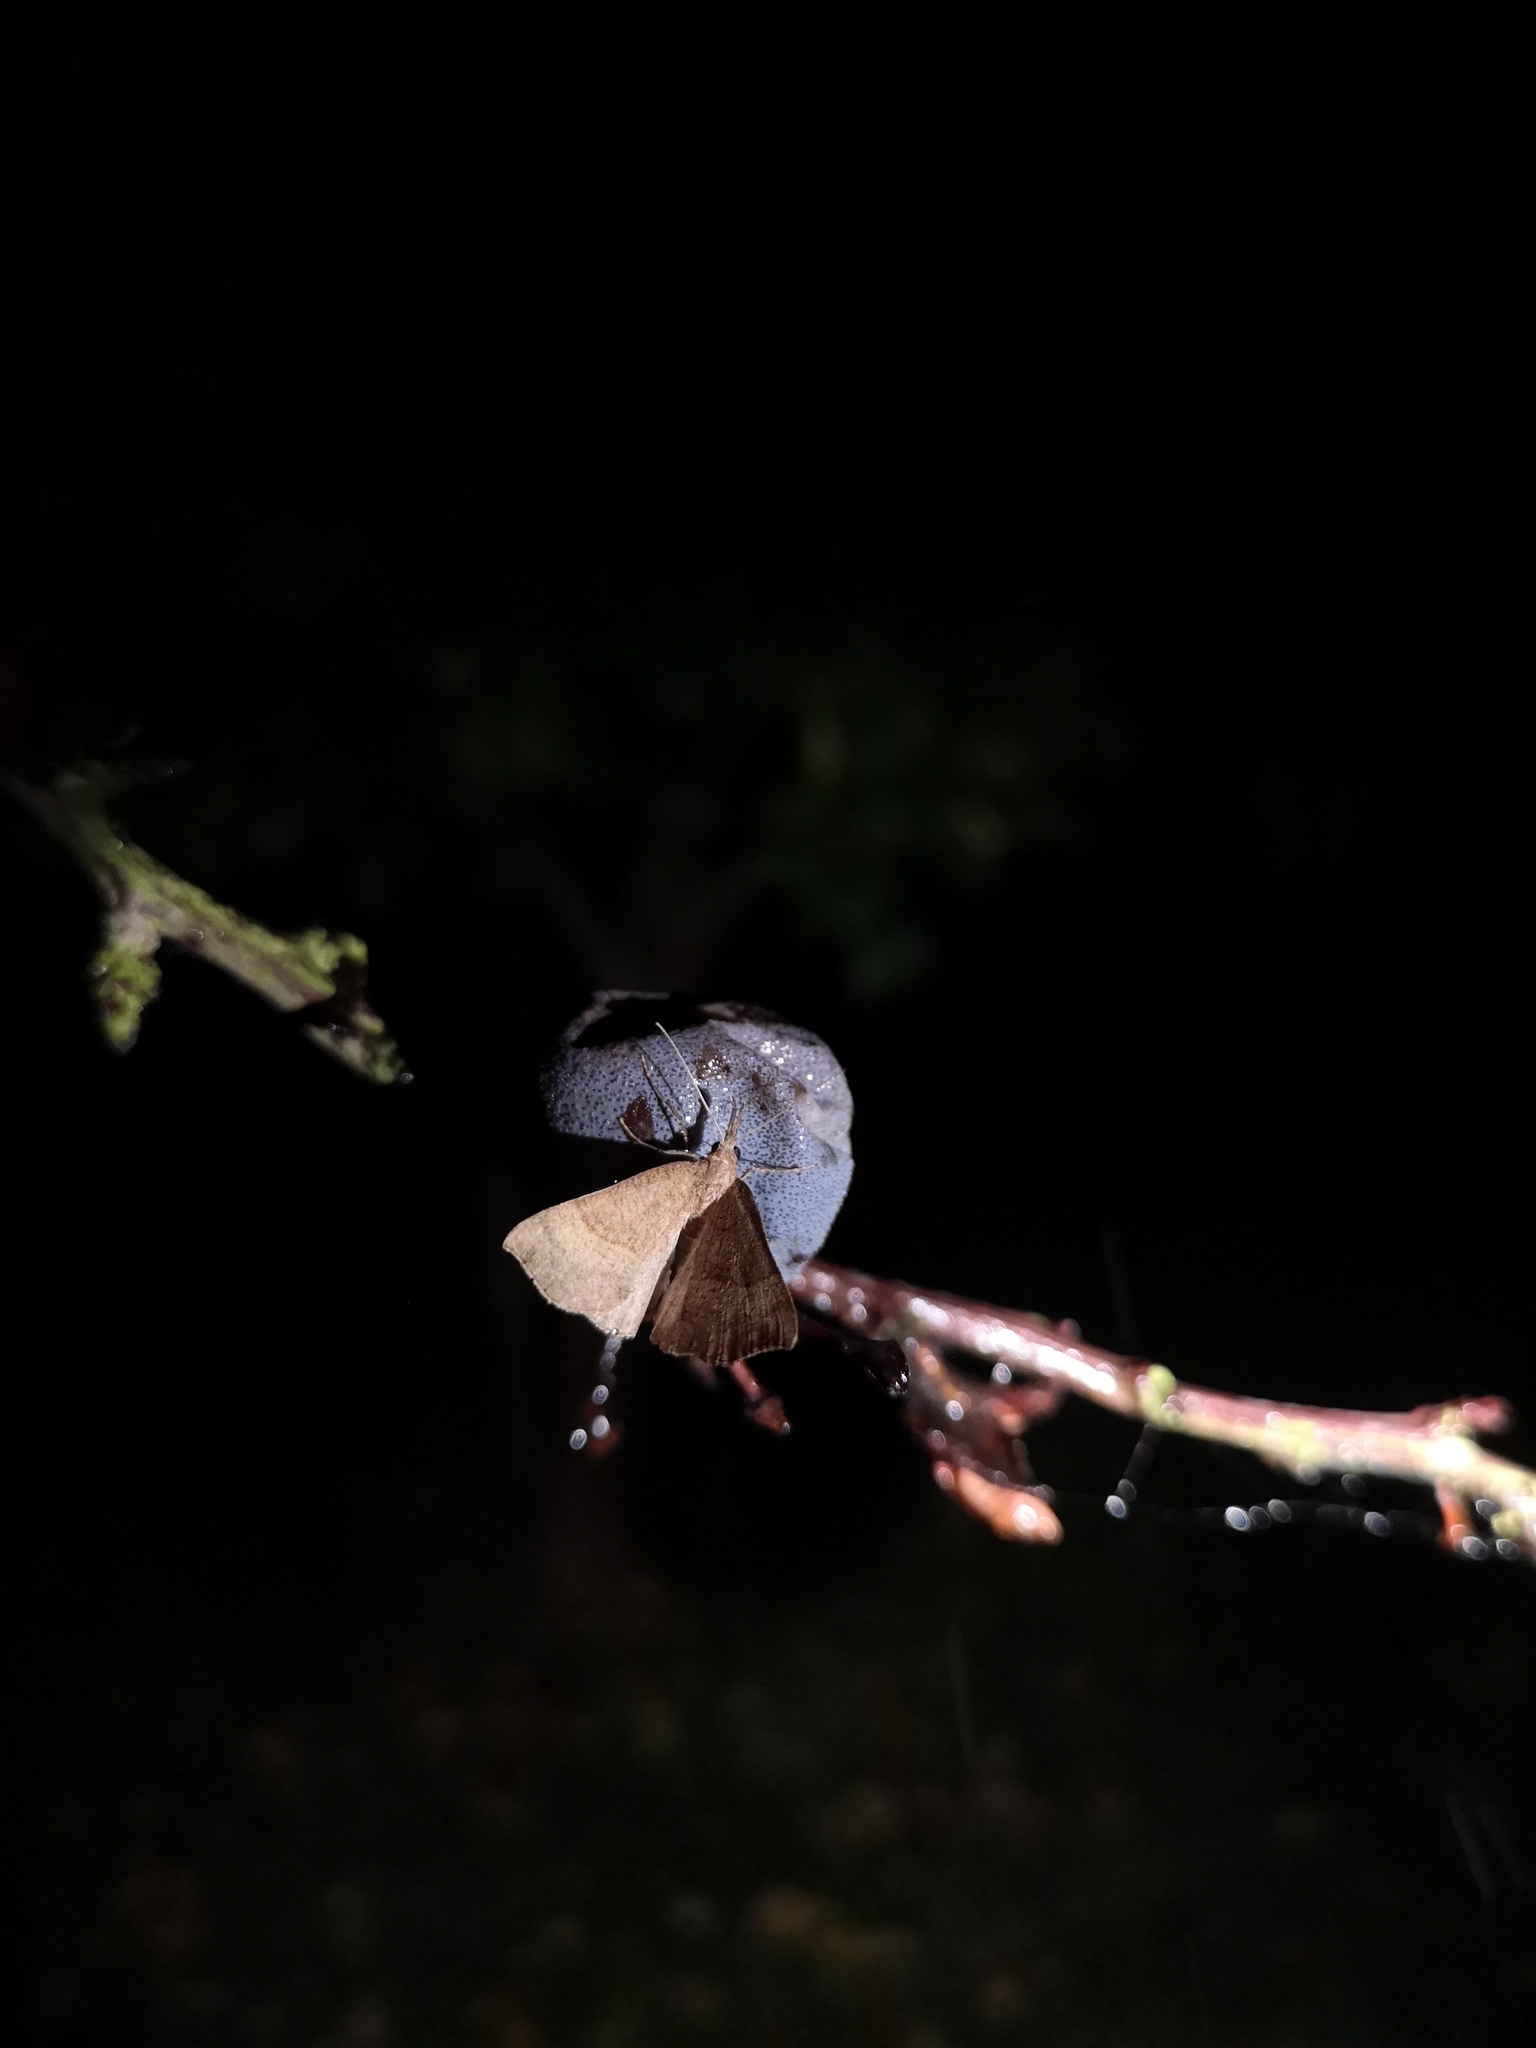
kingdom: Animalia
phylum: Arthropoda
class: Insecta
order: Lepidoptera
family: Erebidae
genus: Hypena
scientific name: Hypena proboscidalis
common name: Snout
